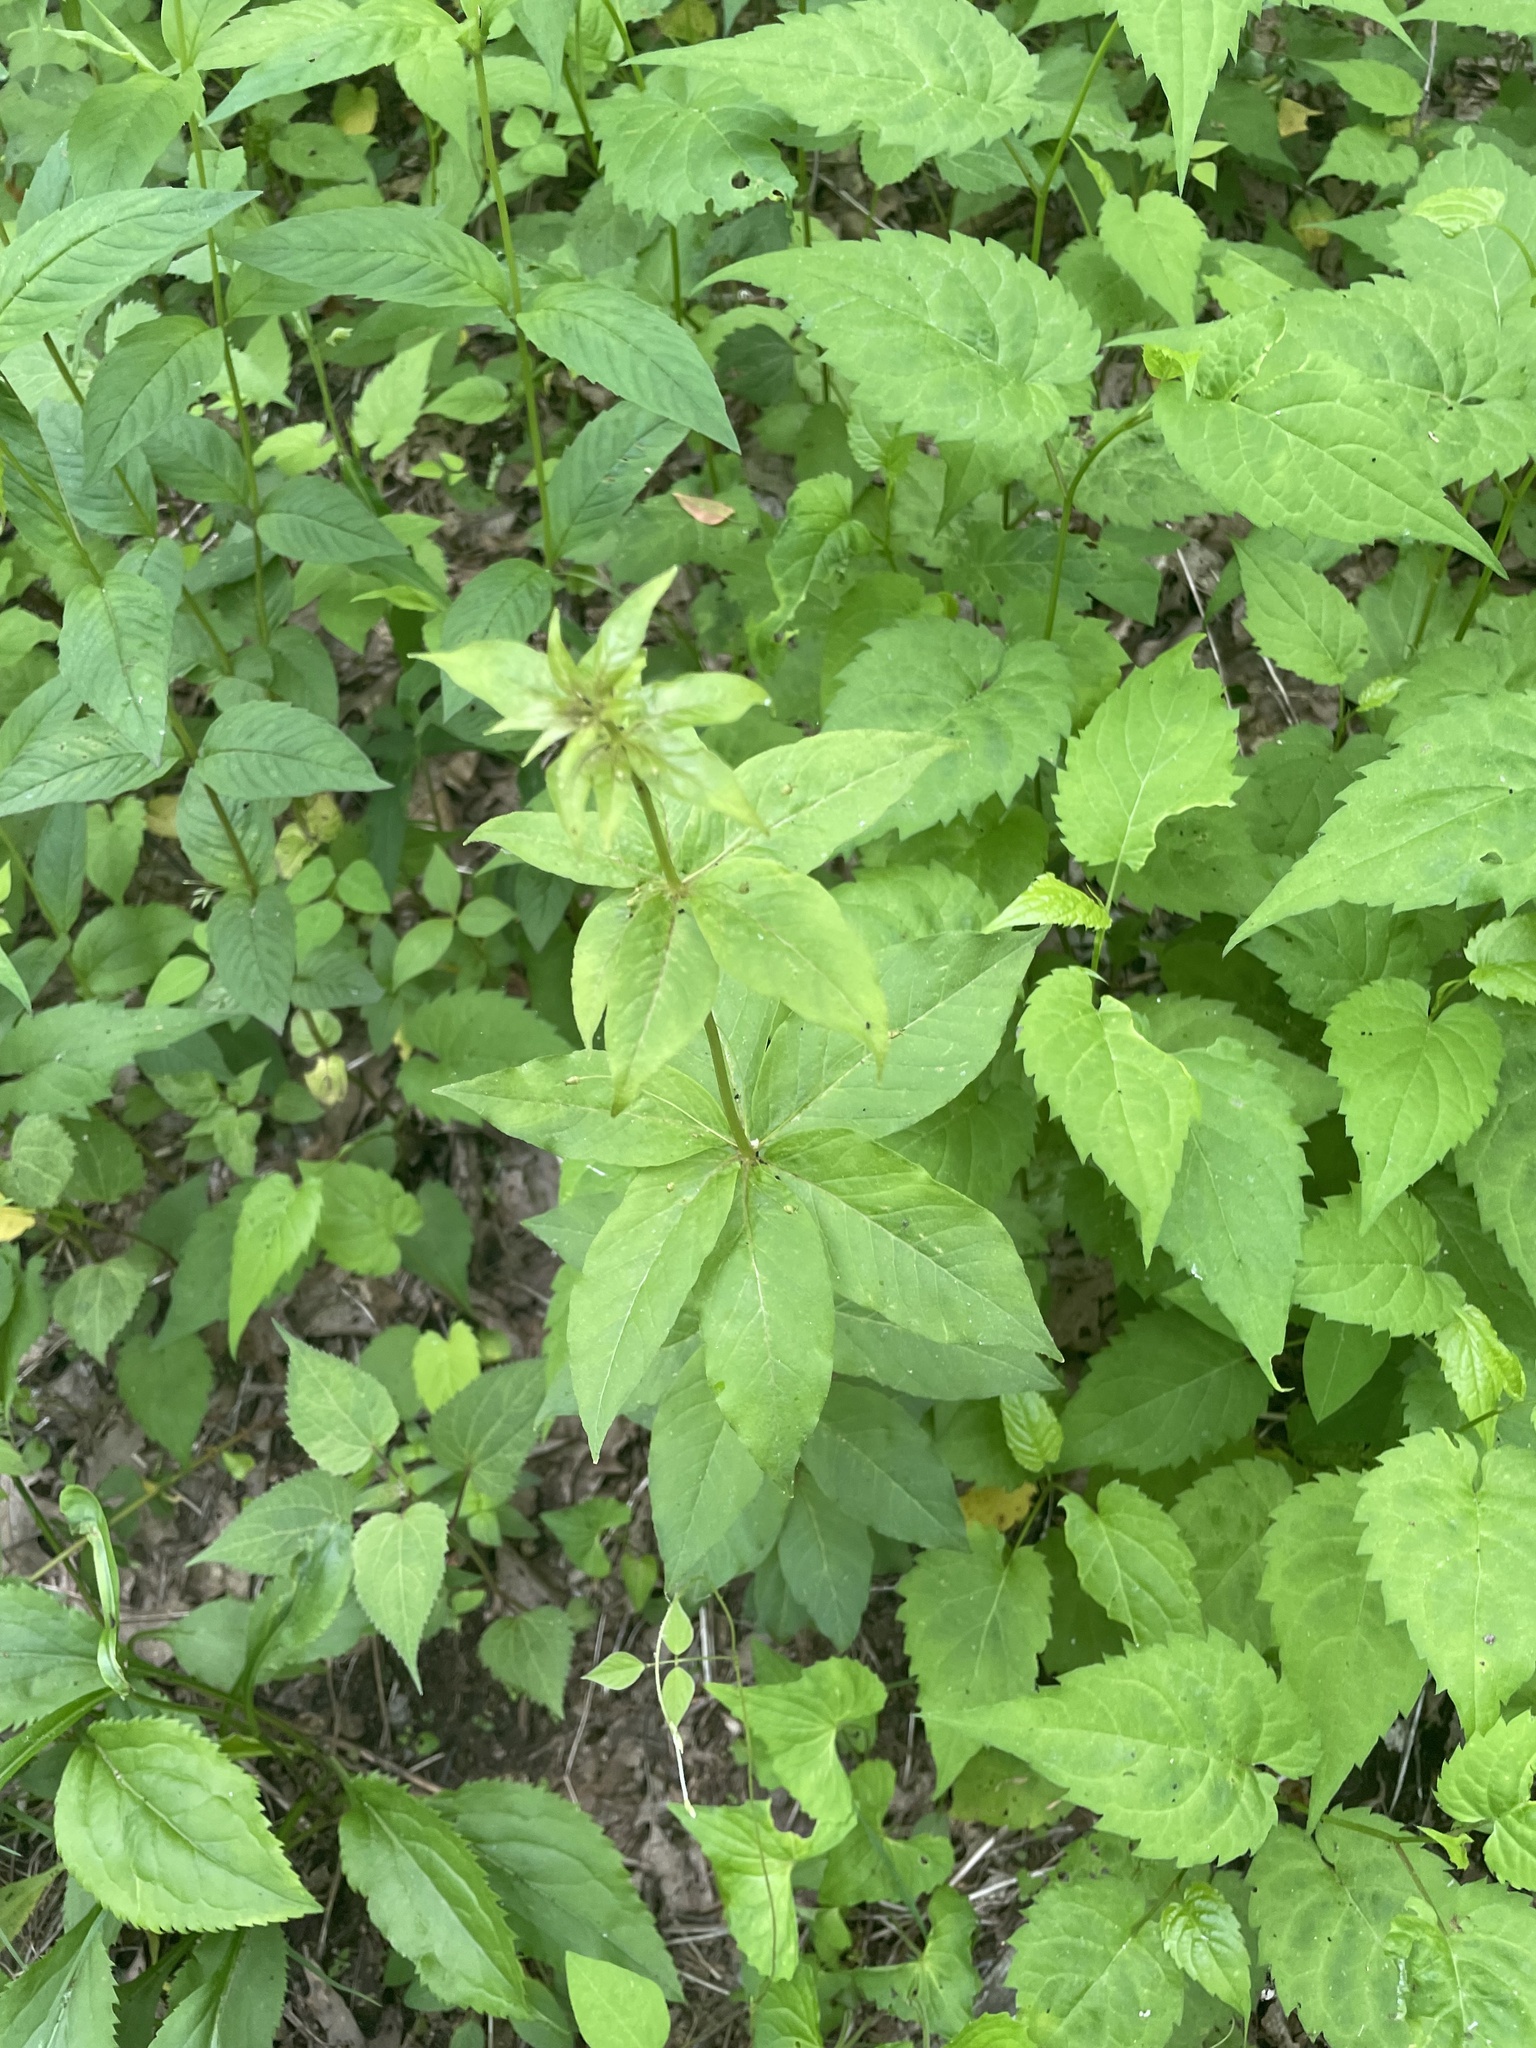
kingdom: Plantae
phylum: Tracheophyta
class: Magnoliopsida
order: Ericales
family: Primulaceae
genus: Lysimachia
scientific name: Lysimachia quadrifolia
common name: Whorled loosestrife
